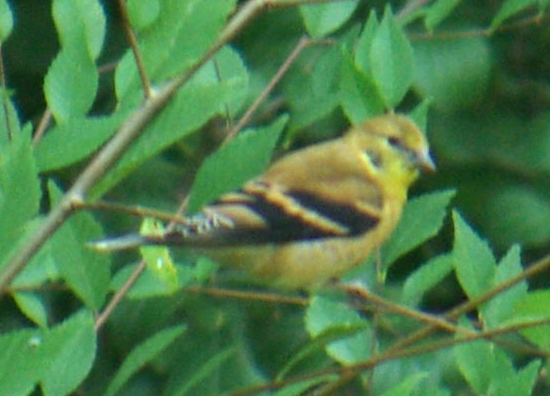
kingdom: Animalia
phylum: Chordata
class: Aves
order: Passeriformes
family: Fringillidae
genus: Spinus
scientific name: Spinus tristis
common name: American goldfinch
